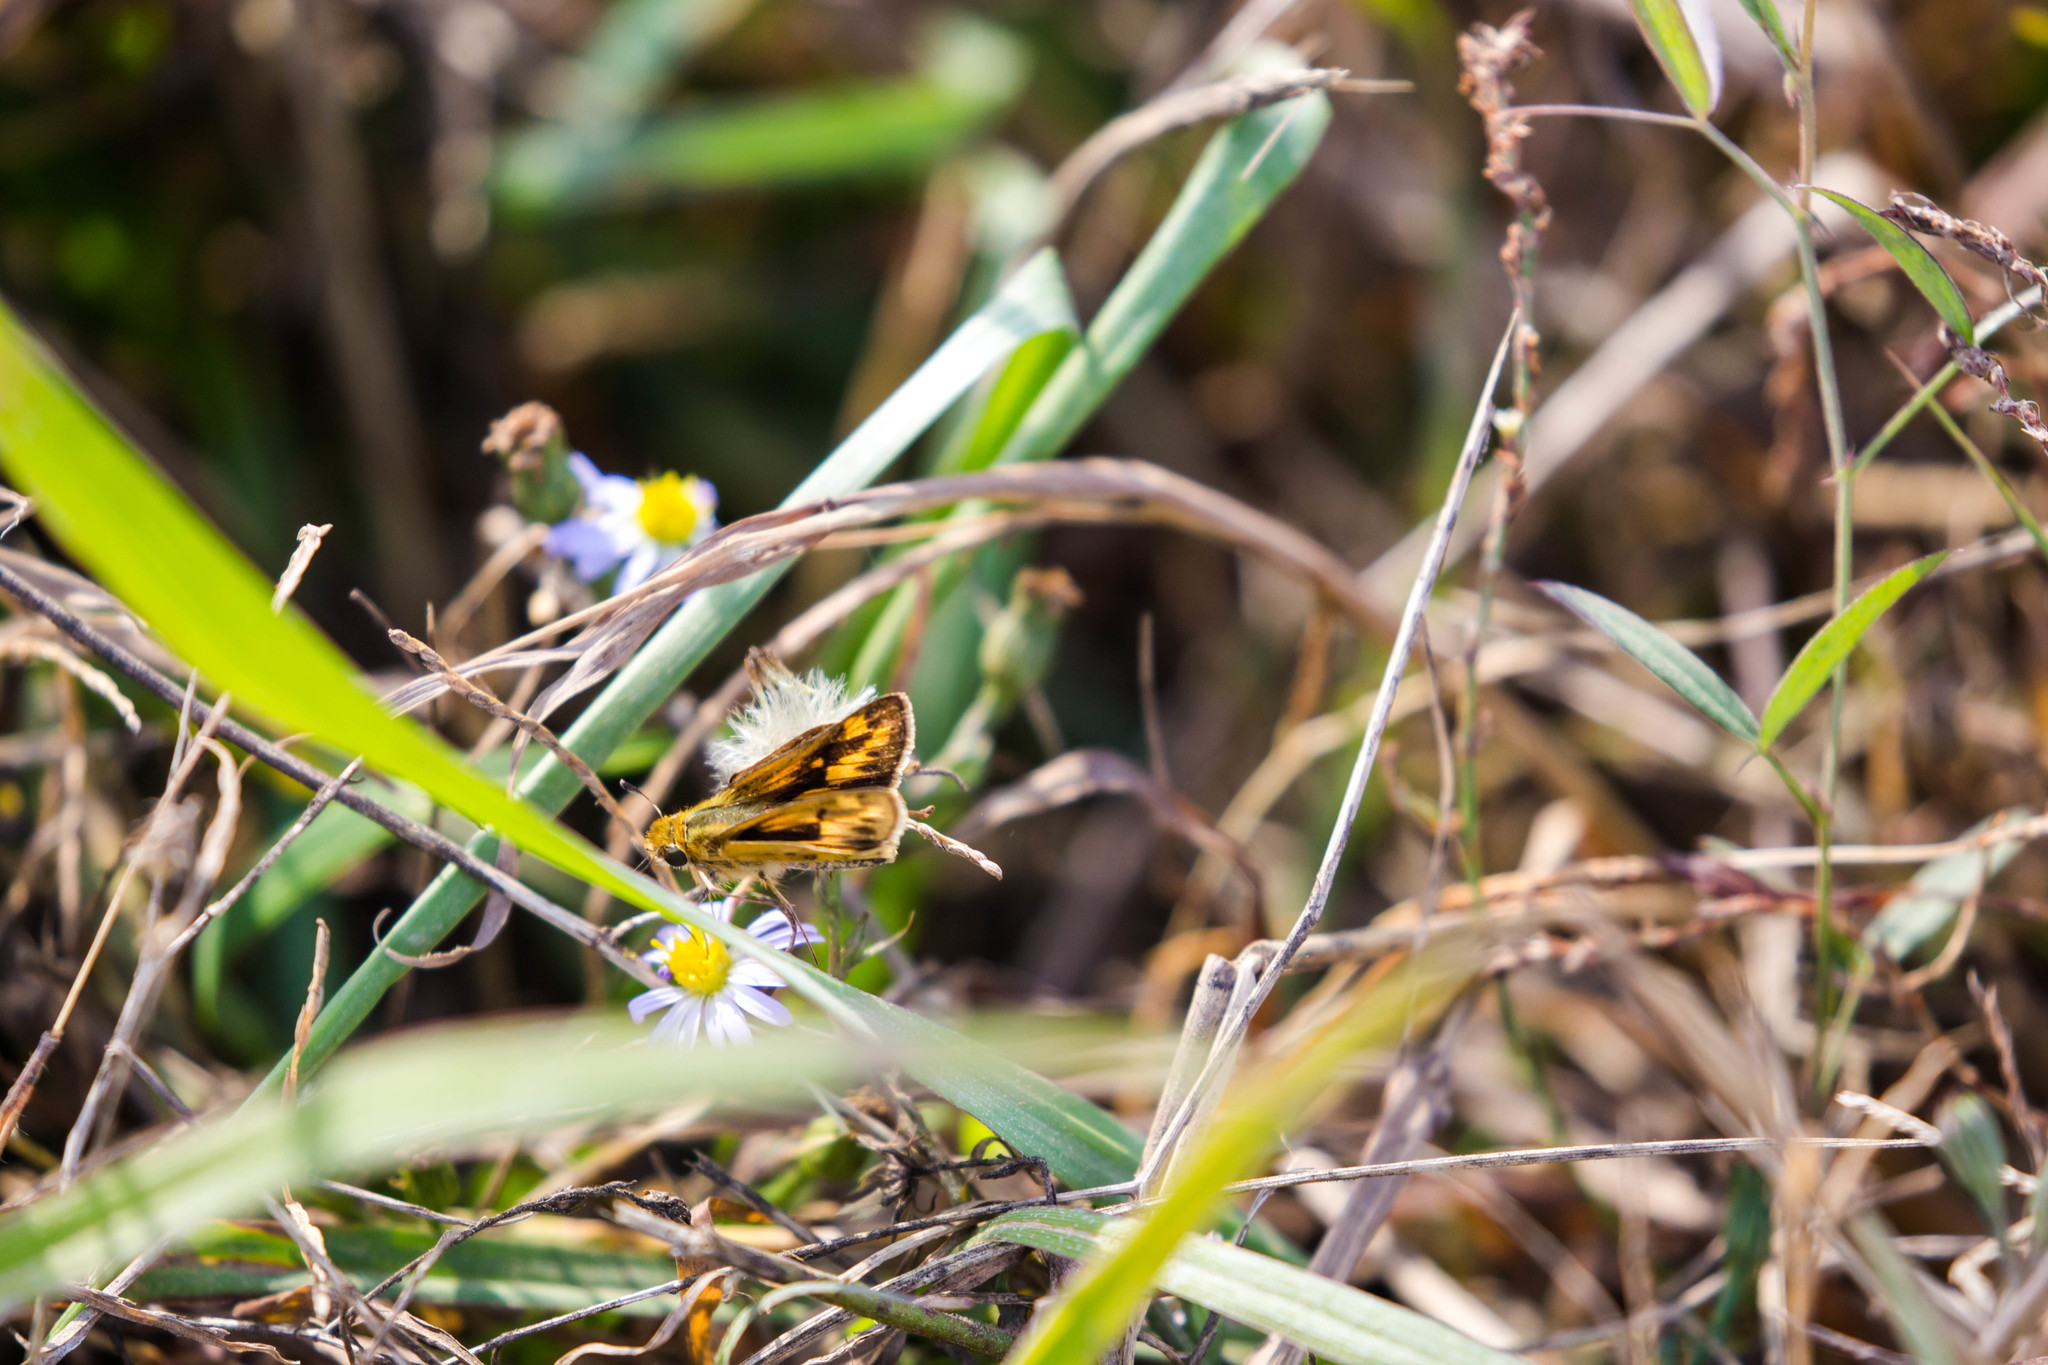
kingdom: Animalia
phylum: Arthropoda
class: Insecta
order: Lepidoptera
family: Hesperiidae
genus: Hylephila
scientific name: Hylephila phyleus
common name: Fiery skipper
